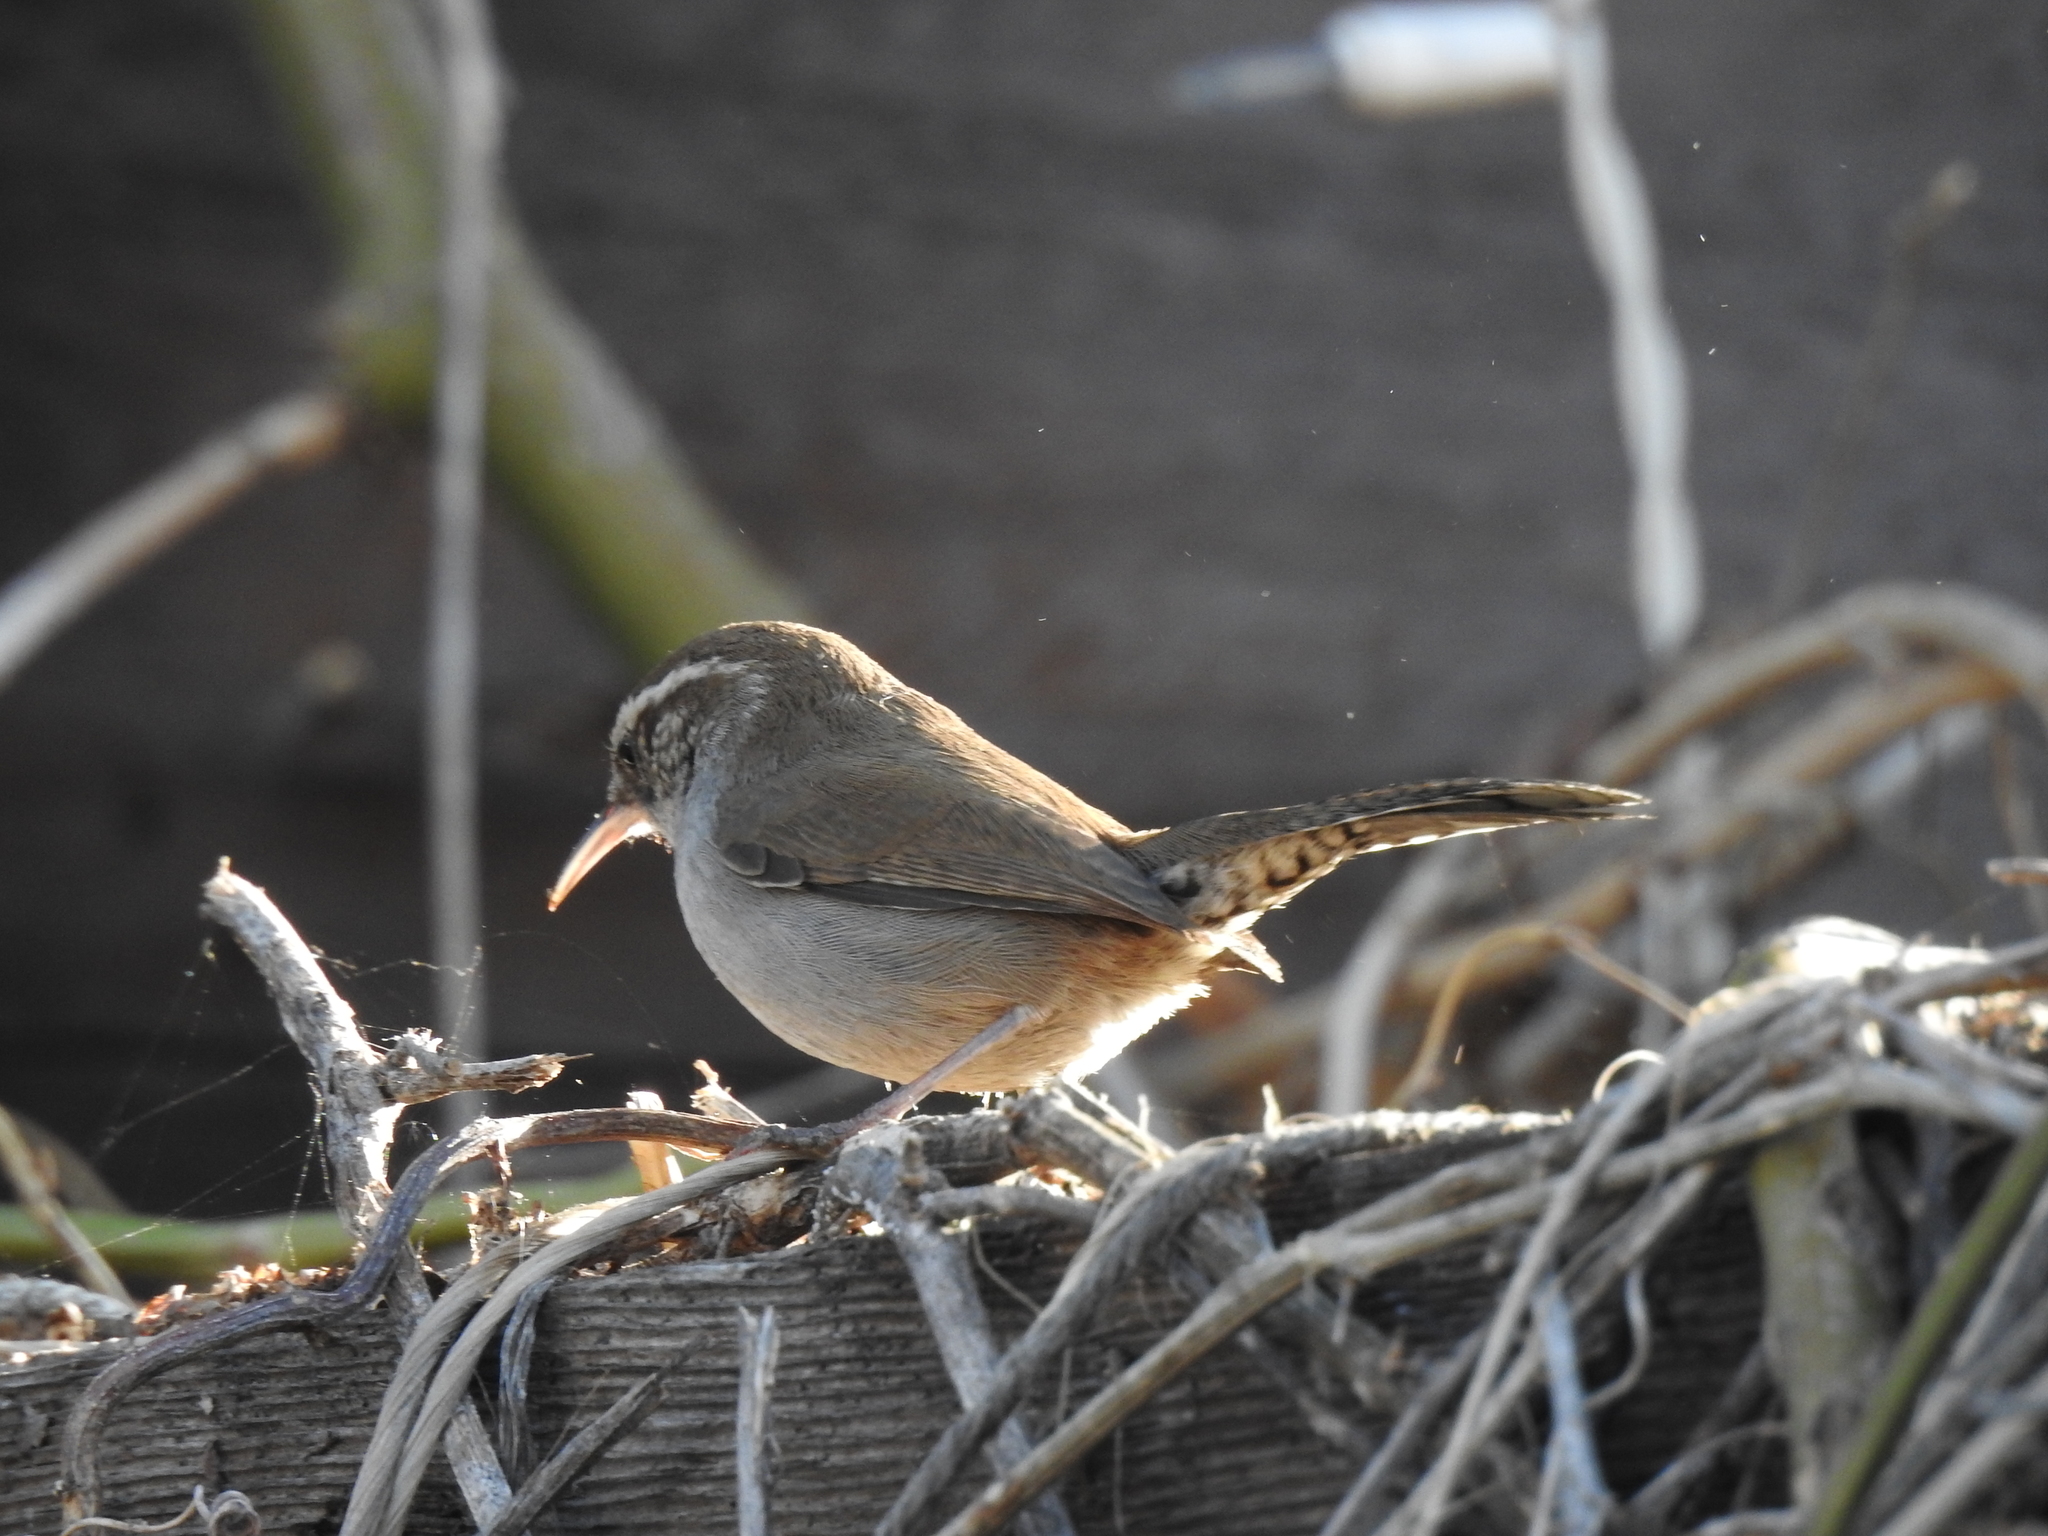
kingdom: Animalia
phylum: Chordata
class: Aves
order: Passeriformes
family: Troglodytidae
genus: Thryomanes
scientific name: Thryomanes bewickii
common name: Bewick's wren
